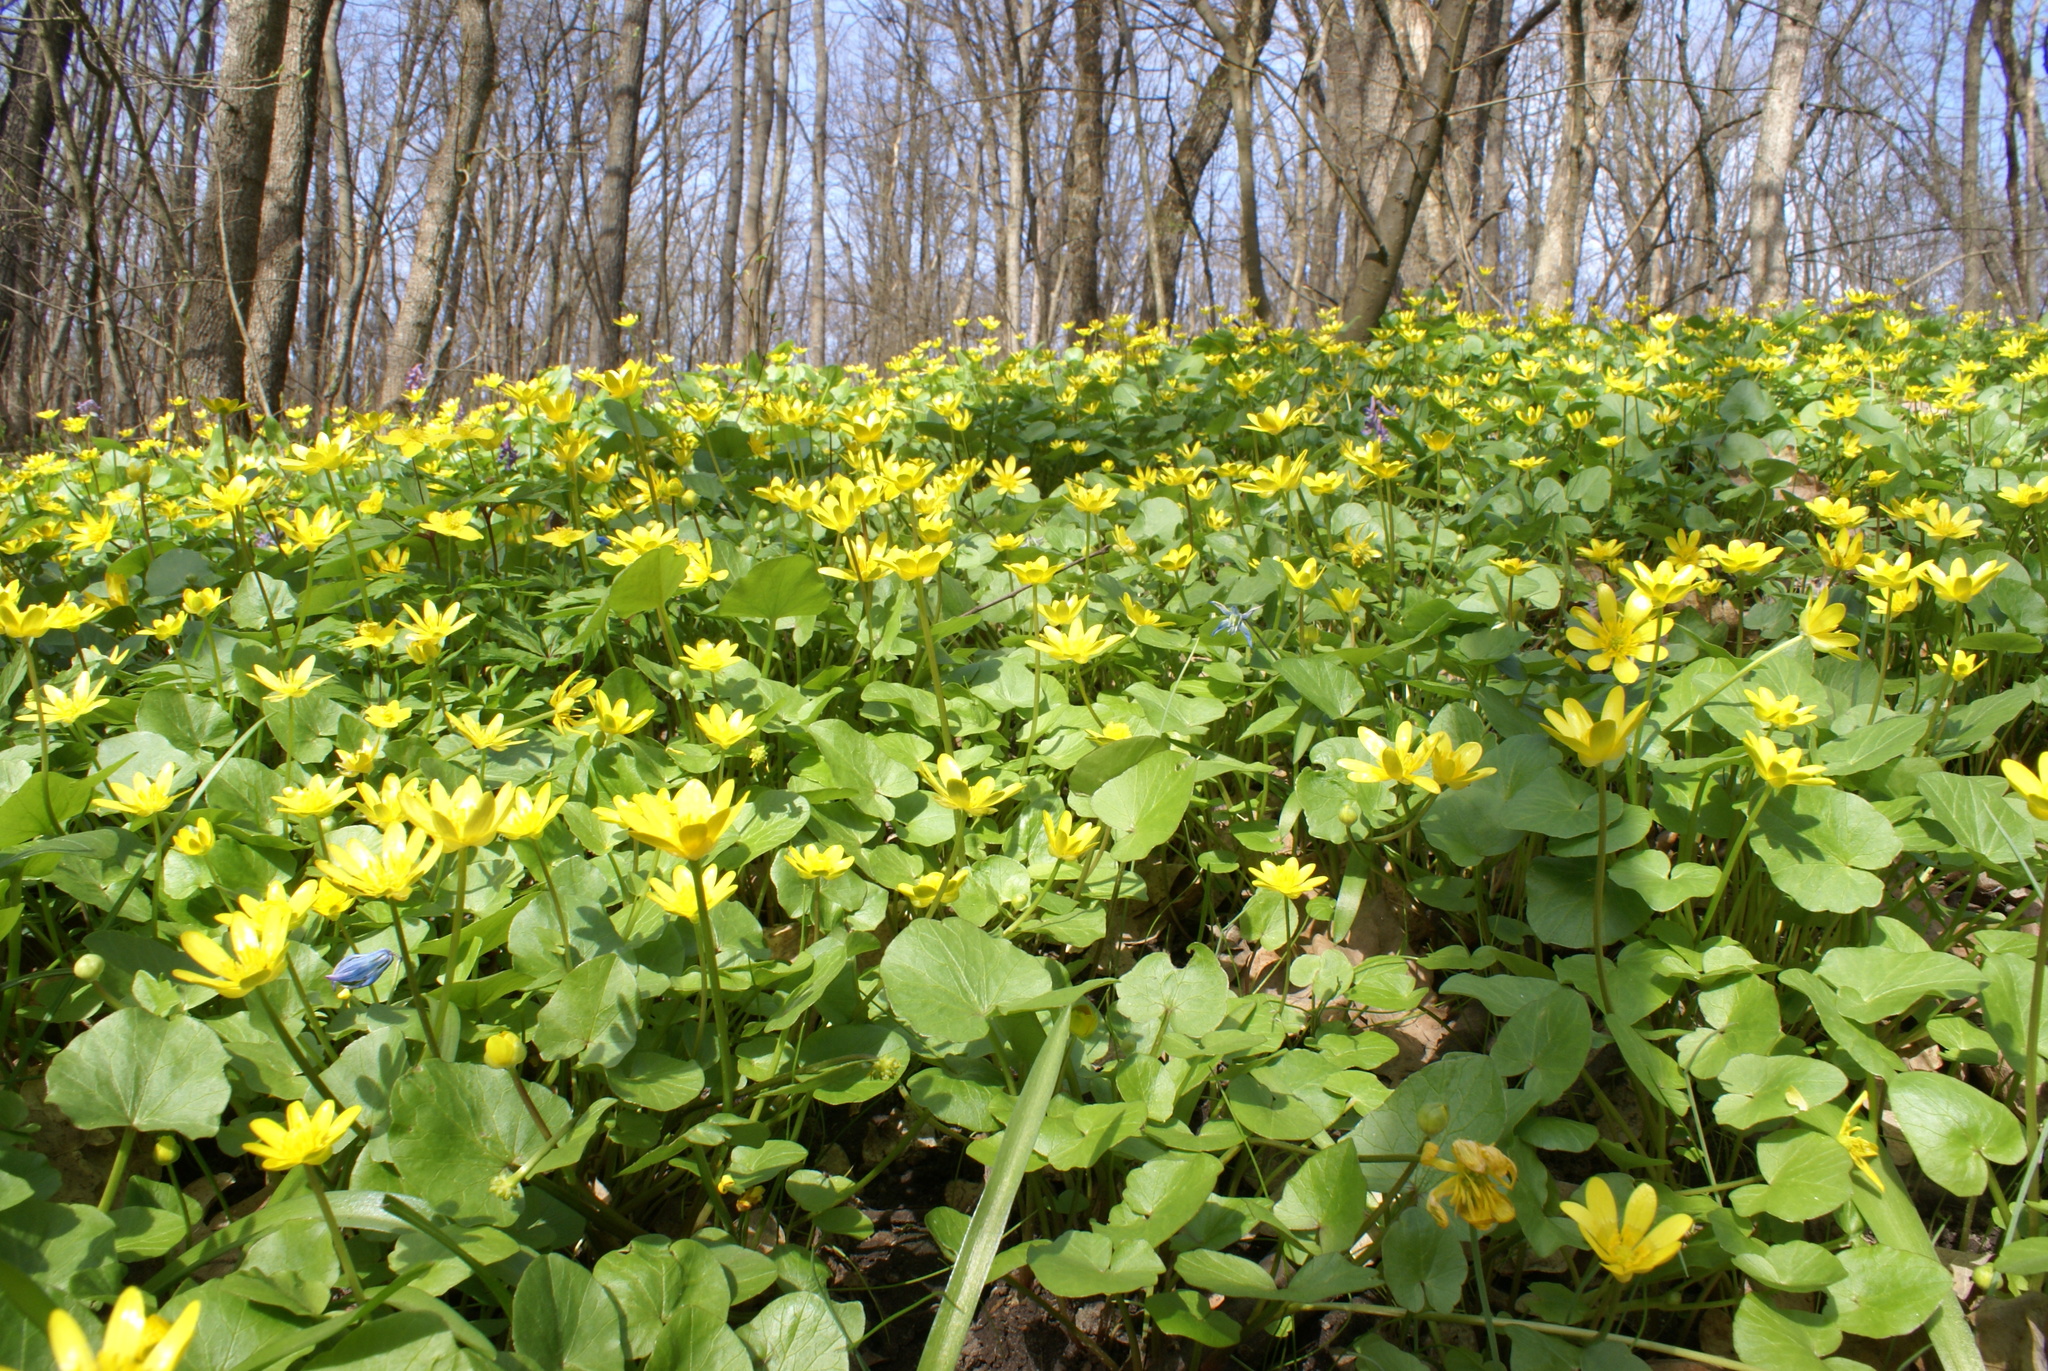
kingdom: Plantae
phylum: Tracheophyta
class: Magnoliopsida
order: Ranunculales
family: Ranunculaceae
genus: Ficaria
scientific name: Ficaria verna
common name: Lesser celandine
